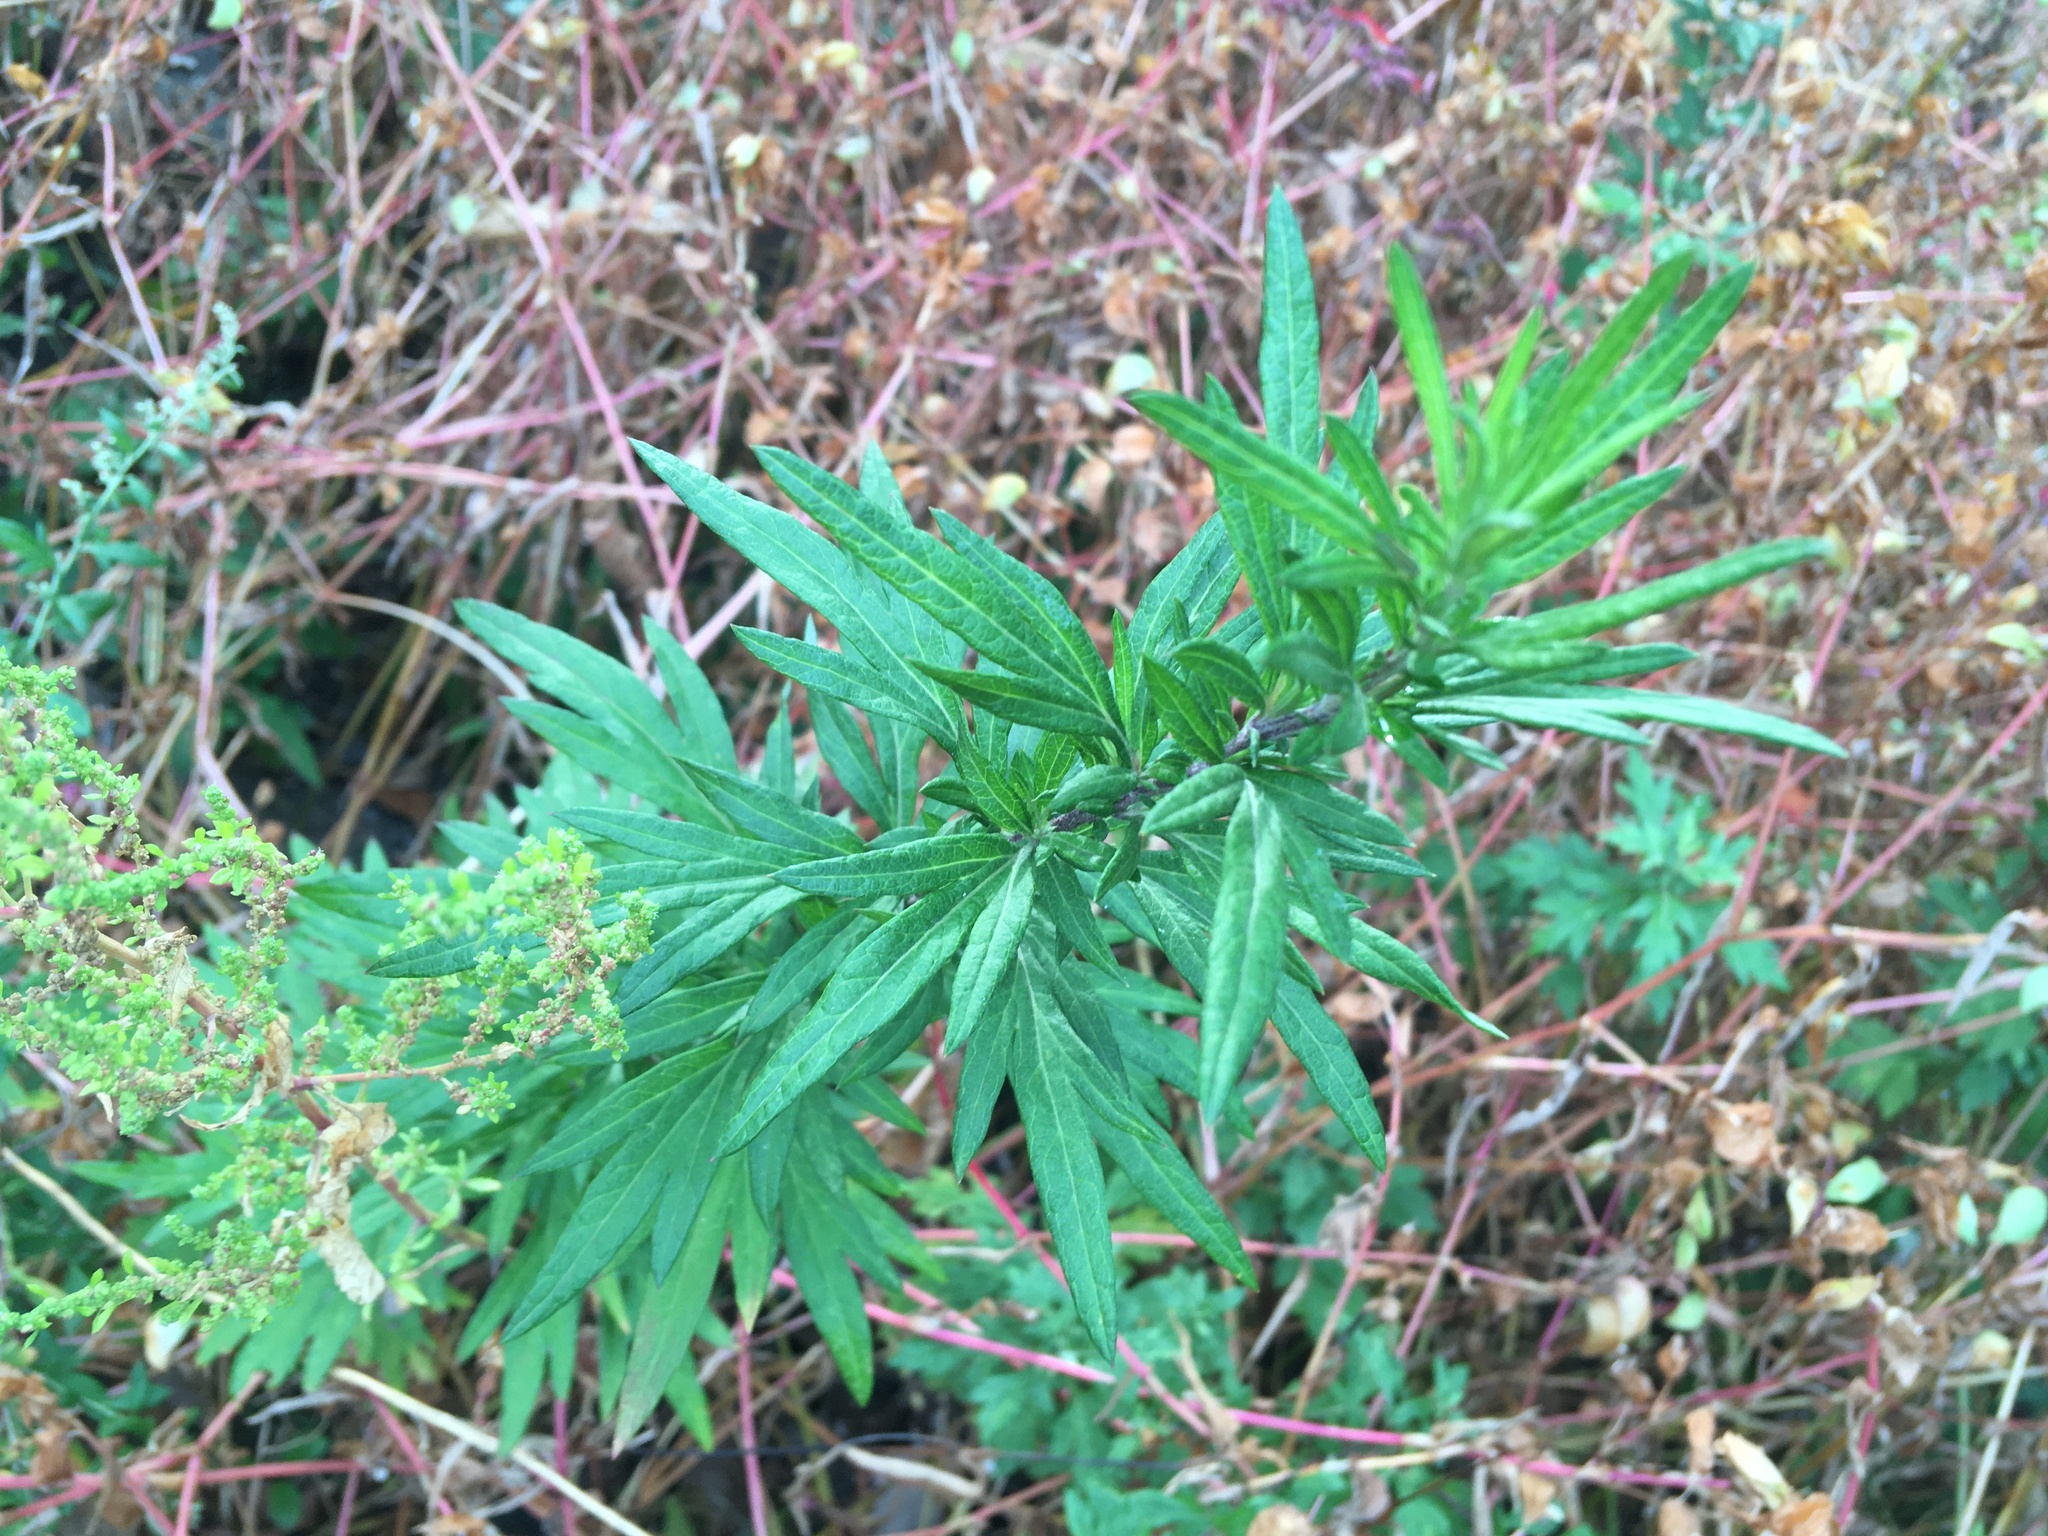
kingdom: Plantae
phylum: Tracheophyta
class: Magnoliopsida
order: Asterales
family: Asteraceae
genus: Artemisia
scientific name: Artemisia vulgaris
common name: Mugwort
